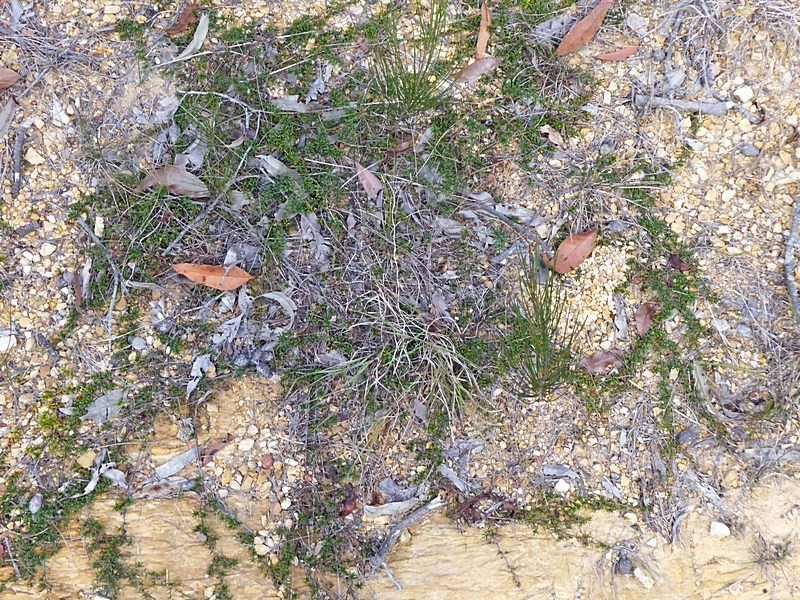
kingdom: Plantae
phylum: Tracheophyta
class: Magnoliopsida
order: Fabales
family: Fabaceae
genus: Pultenaea
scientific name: Pultenaea pedunculata
